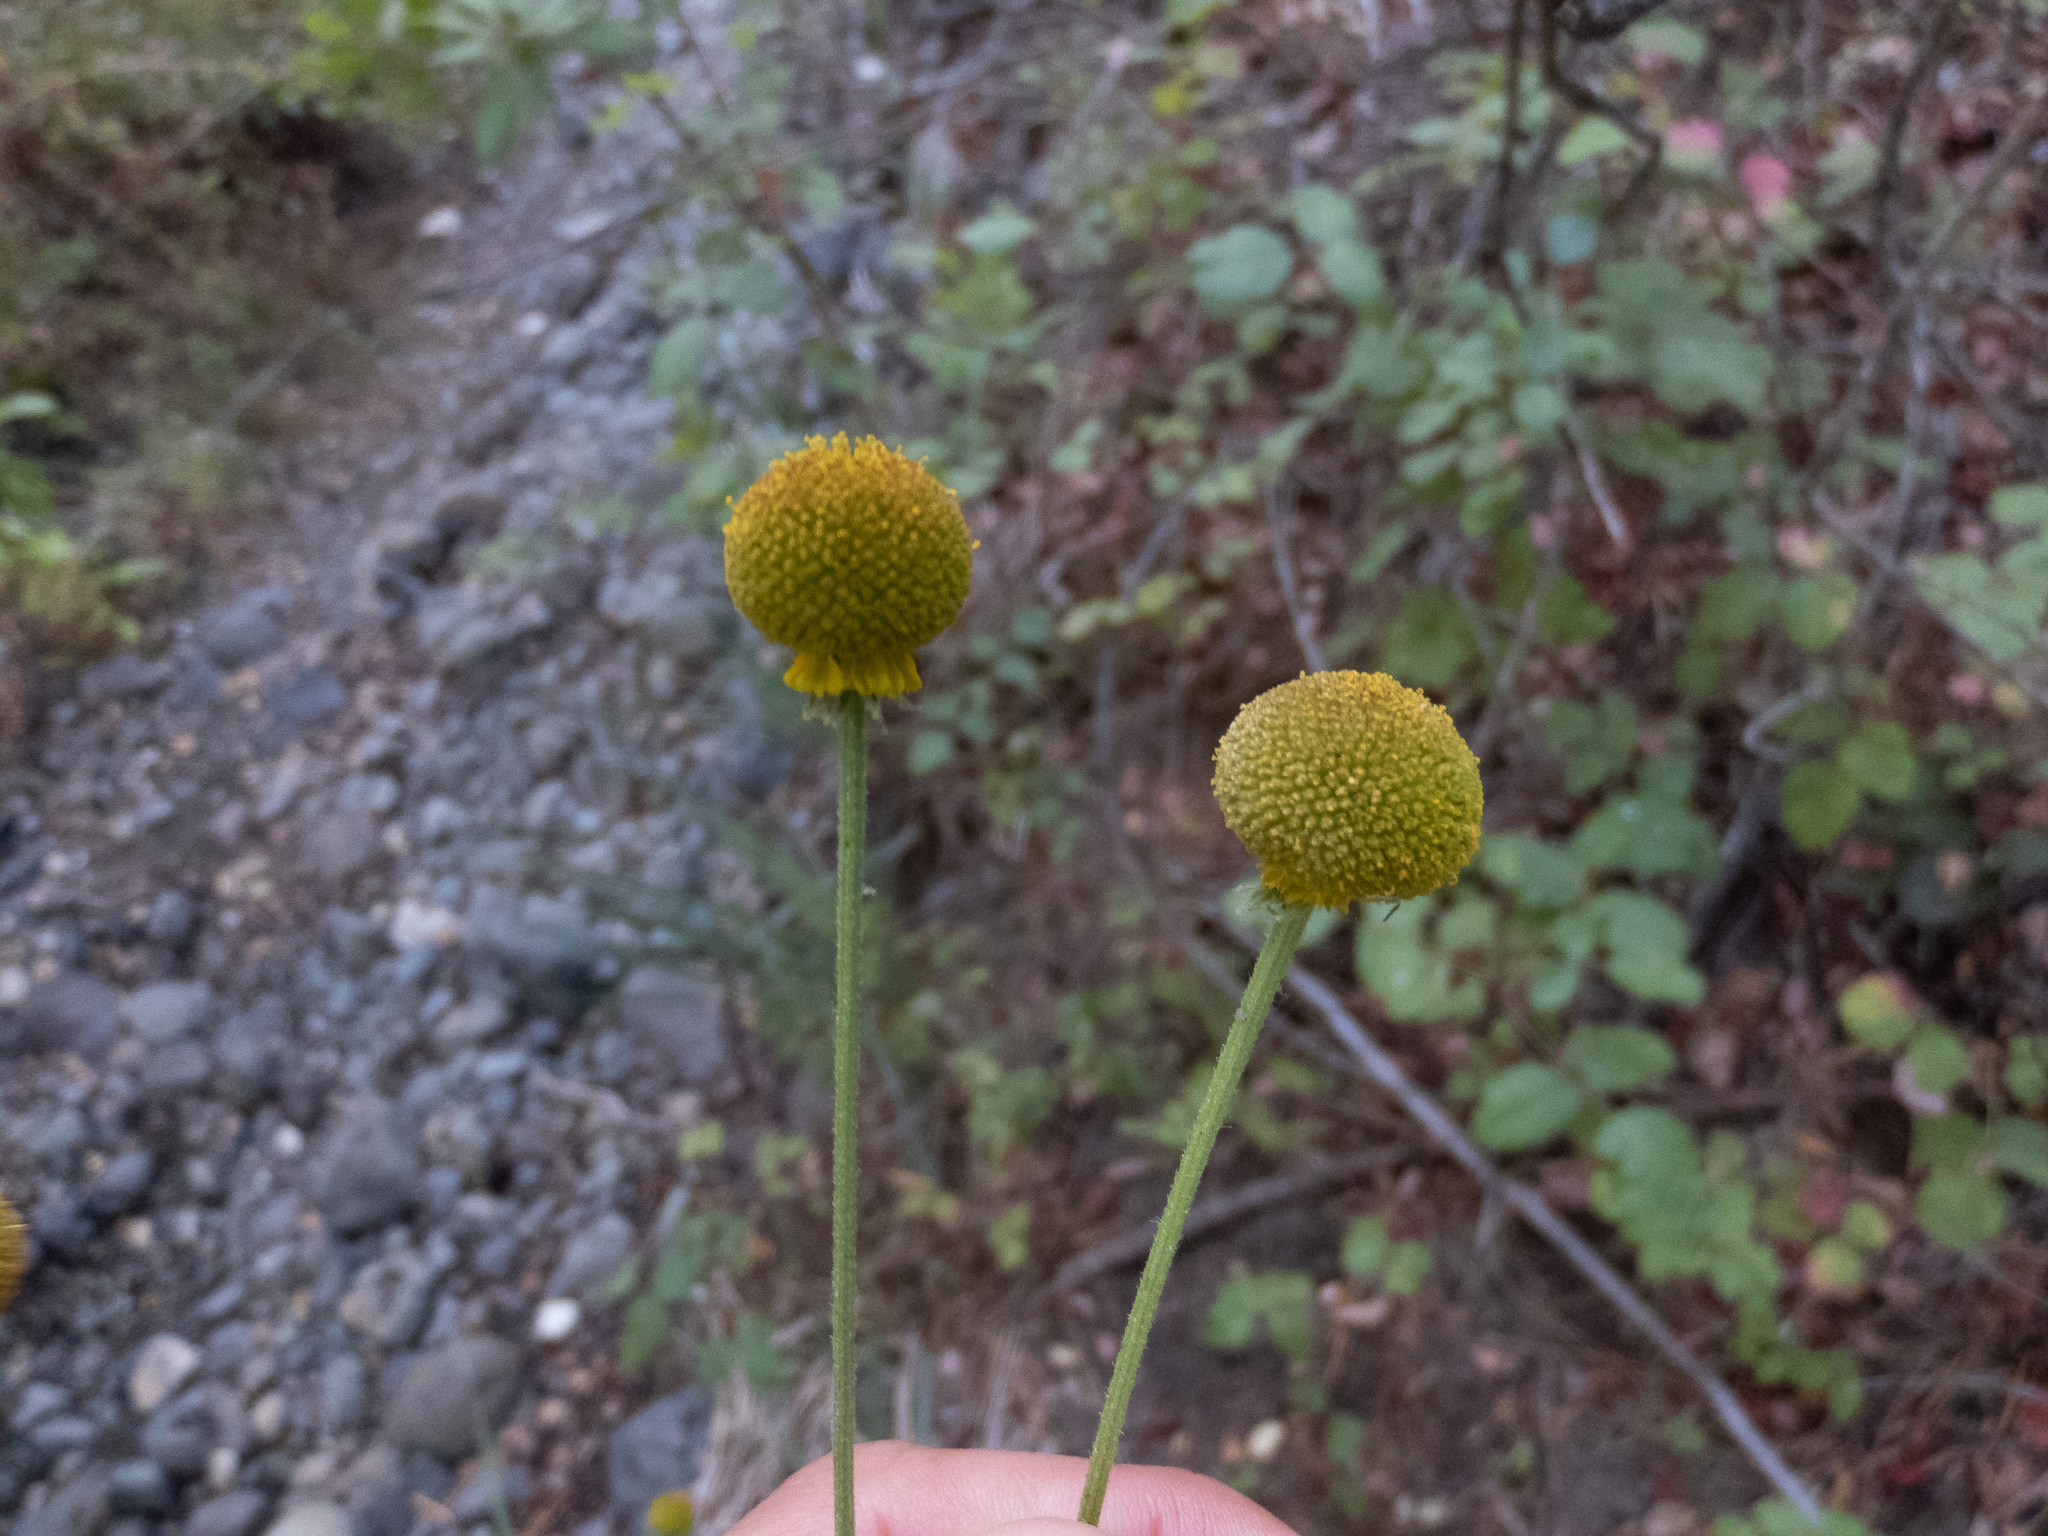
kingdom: Plantae
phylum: Tracheophyta
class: Magnoliopsida
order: Asterales
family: Asteraceae
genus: Helenium
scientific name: Helenium puberulum
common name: Sneezewort
